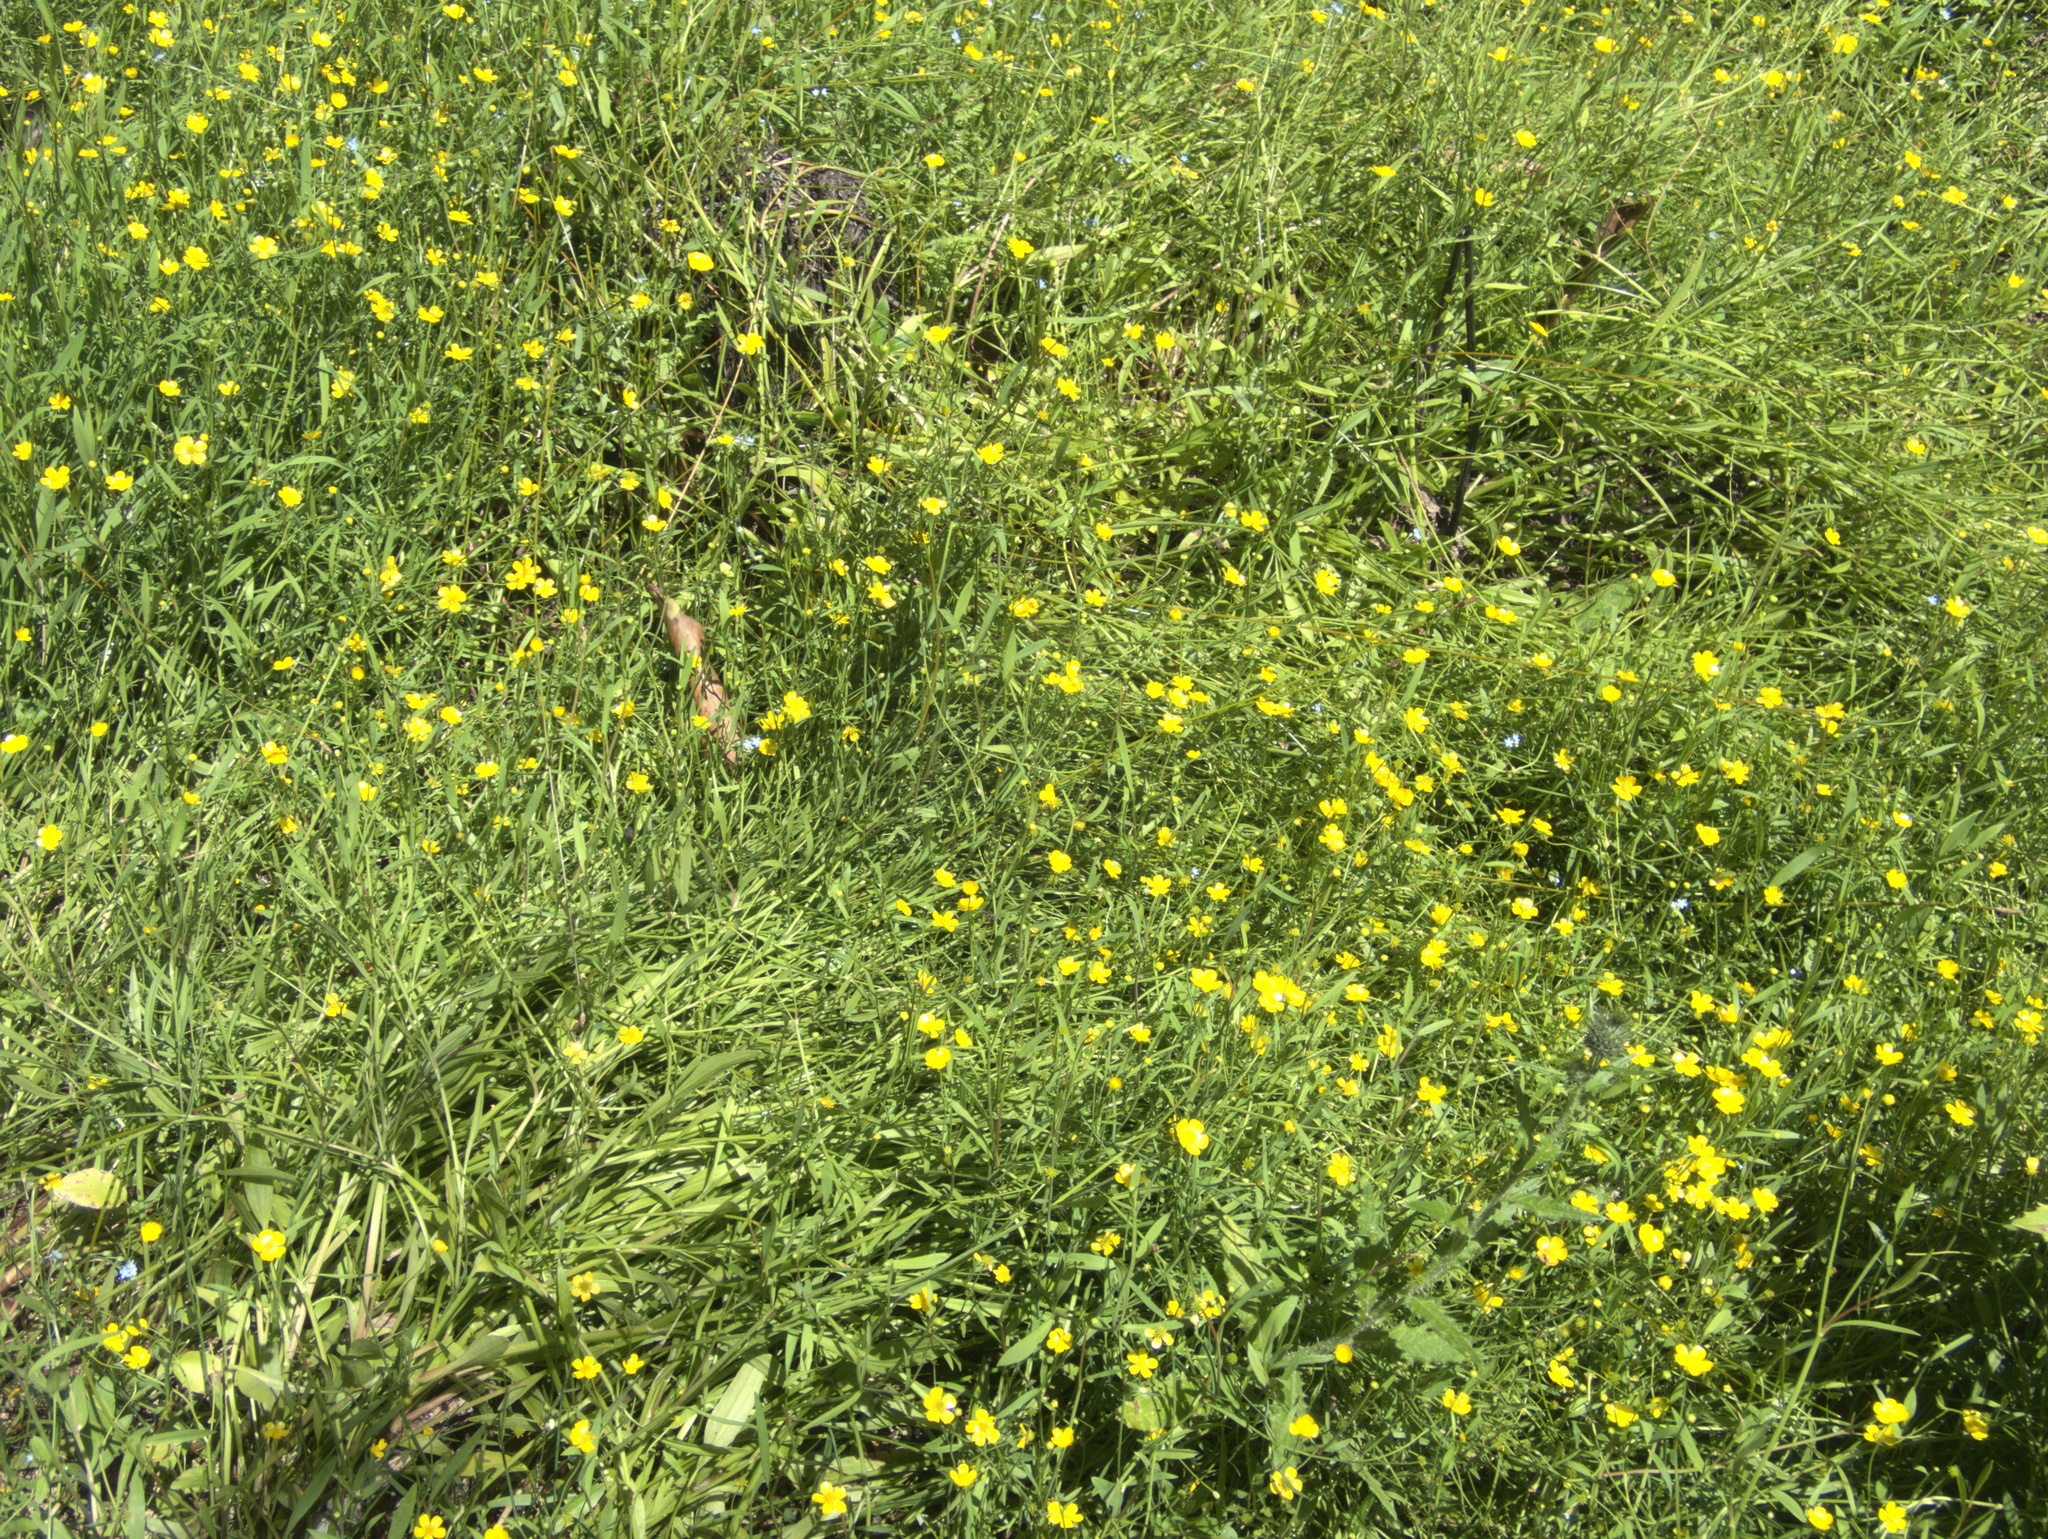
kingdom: Plantae
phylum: Tracheophyta
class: Magnoliopsida
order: Ranunculales
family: Ranunculaceae
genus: Ranunculus
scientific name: Ranunculus flammula
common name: Lesser spearwort
